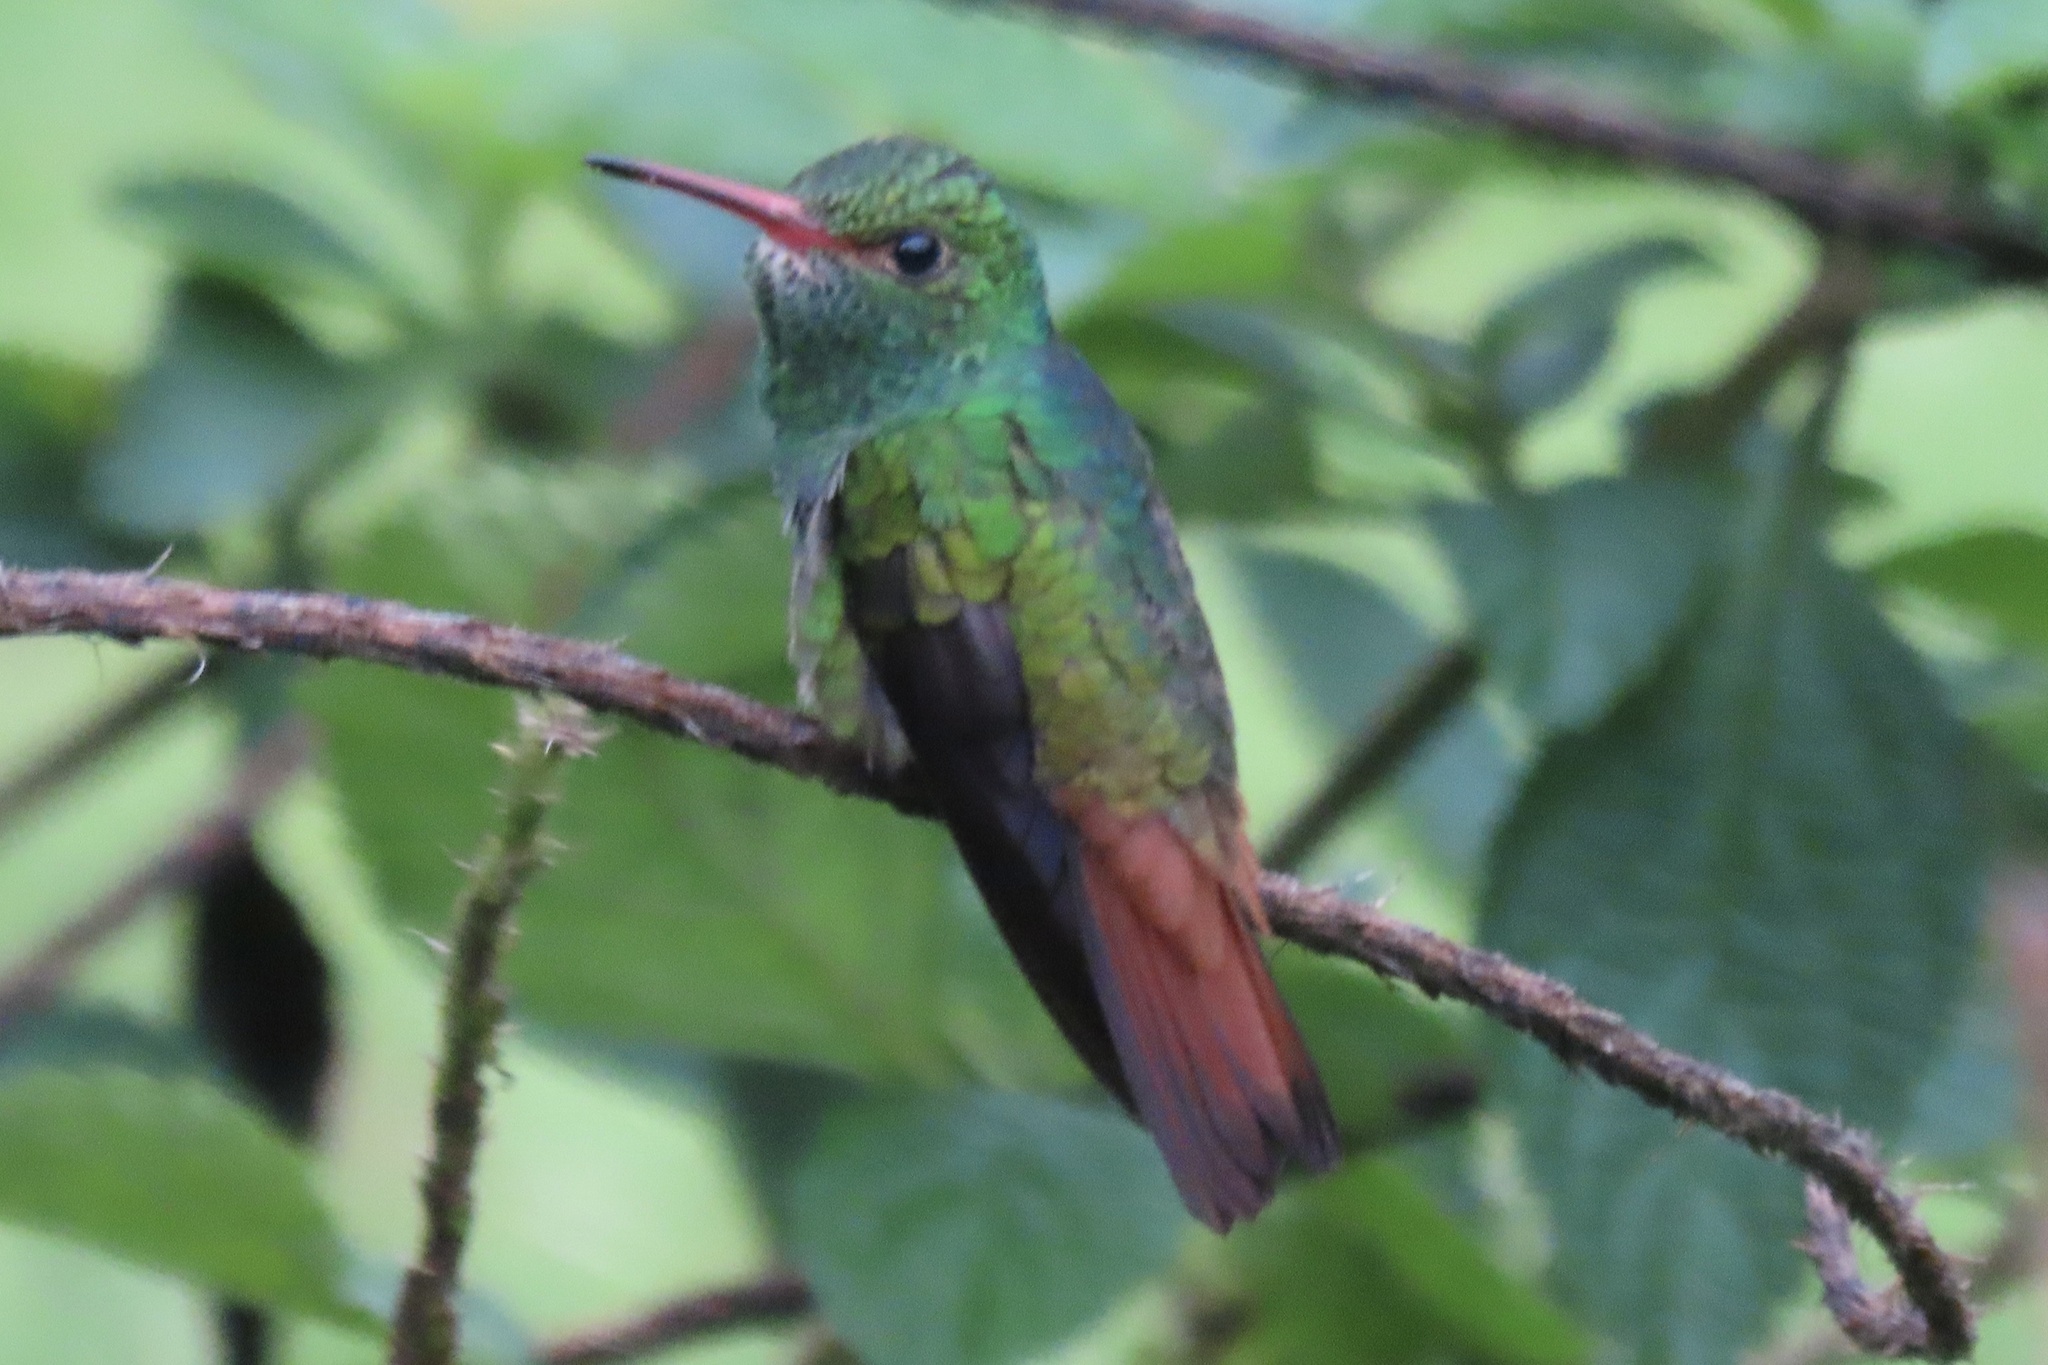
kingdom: Animalia
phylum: Chordata
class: Aves
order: Apodiformes
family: Trochilidae
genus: Amazilia
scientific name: Amazilia tzacatl
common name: Rufous-tailed hummingbird
